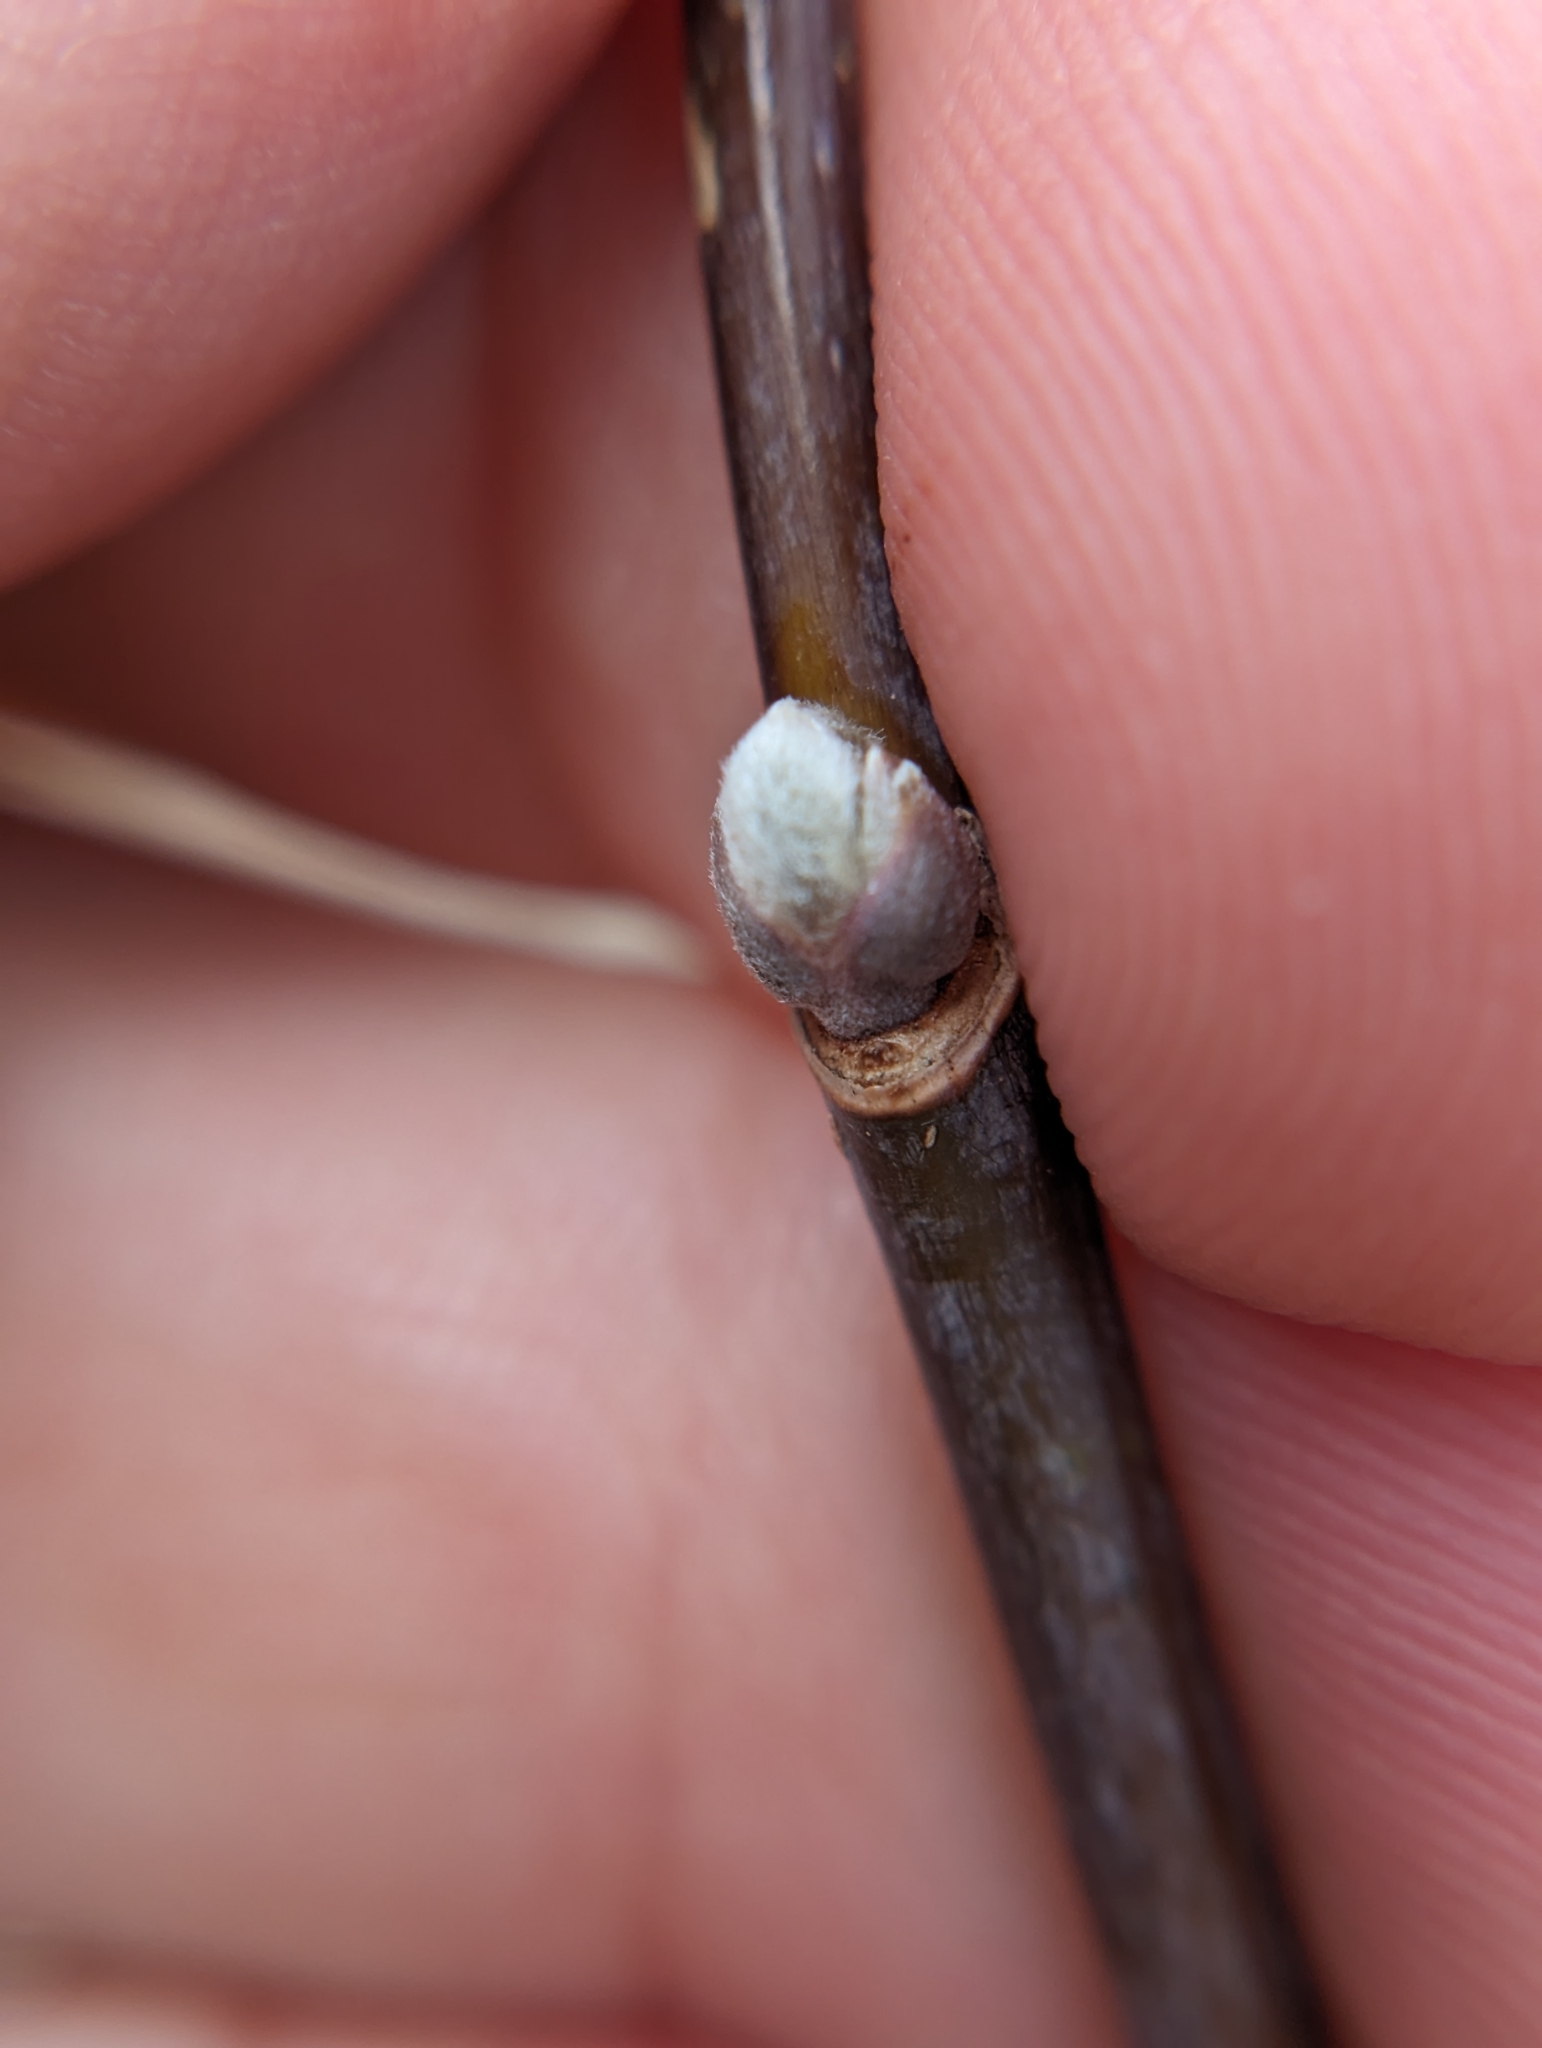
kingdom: Plantae
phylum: Tracheophyta
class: Magnoliopsida
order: Sapindales
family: Sapindaceae
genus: Acer
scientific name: Acer negundo
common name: Ashleaf maple
